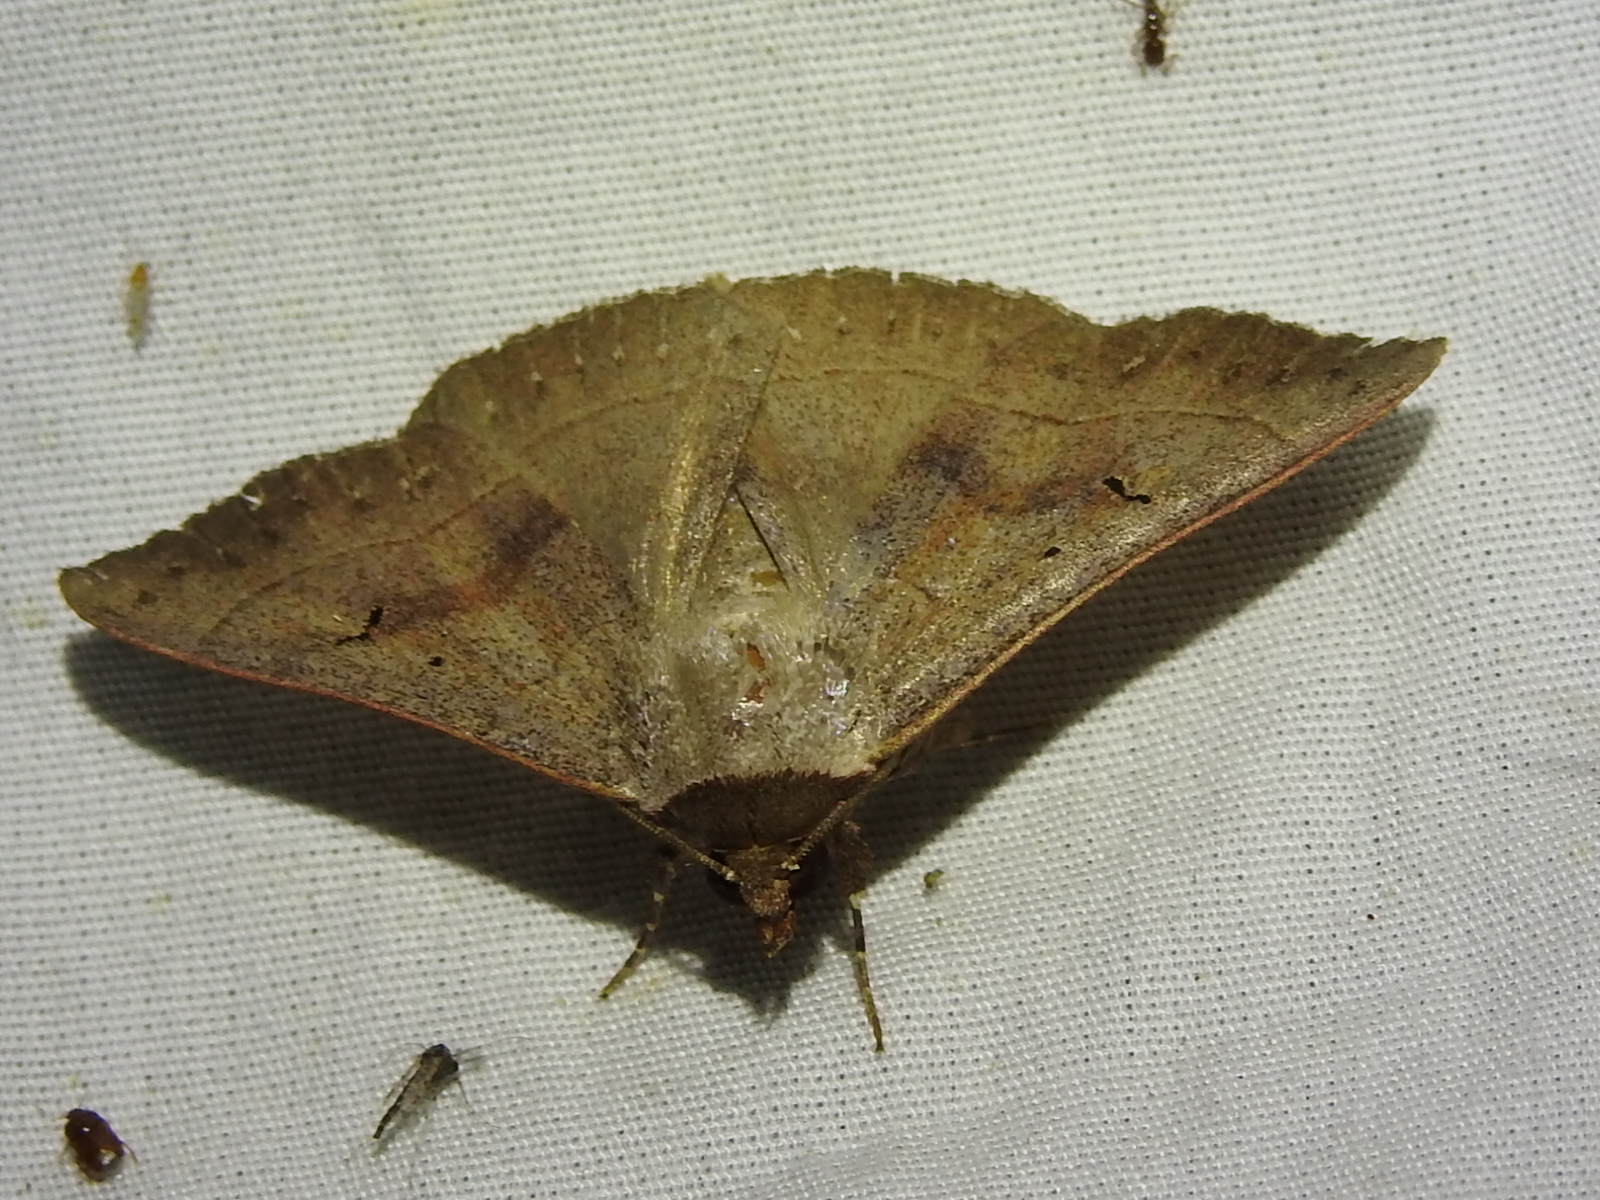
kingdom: Animalia
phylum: Arthropoda
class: Insecta
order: Lepidoptera
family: Erebidae
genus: Panopoda
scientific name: Panopoda carneicosta
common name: Brown panopoda moth
